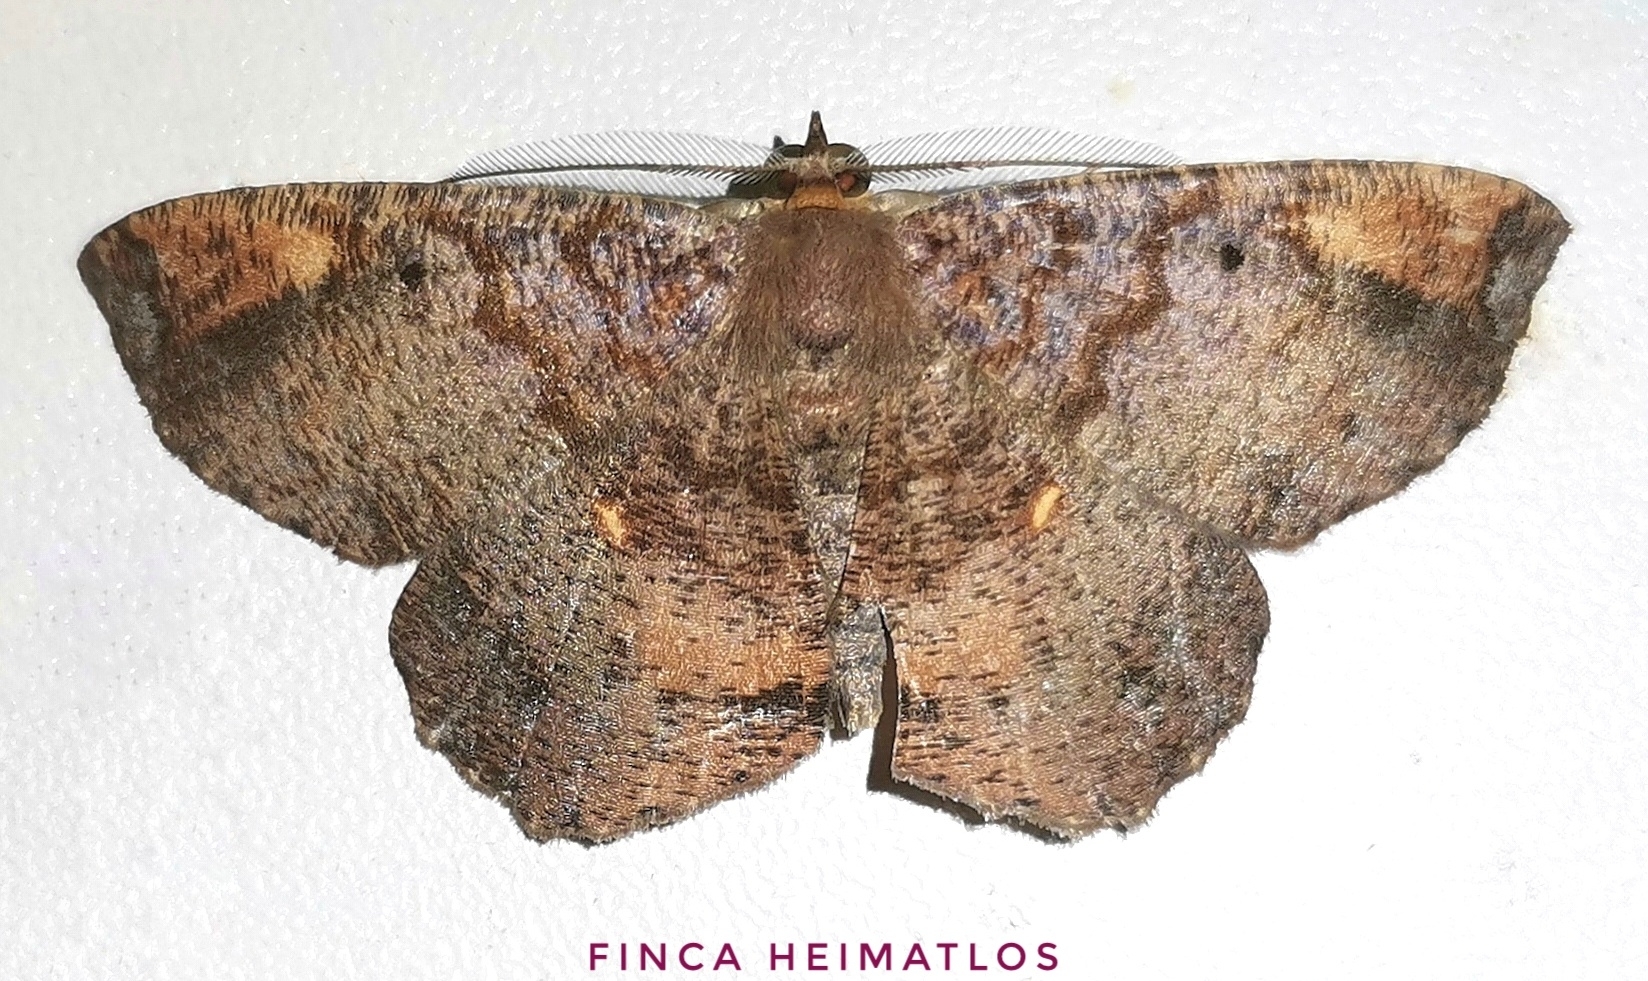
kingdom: Animalia
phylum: Arthropoda
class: Insecta
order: Lepidoptera
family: Geometridae
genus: Thysanopyga
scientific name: Thysanopyga
